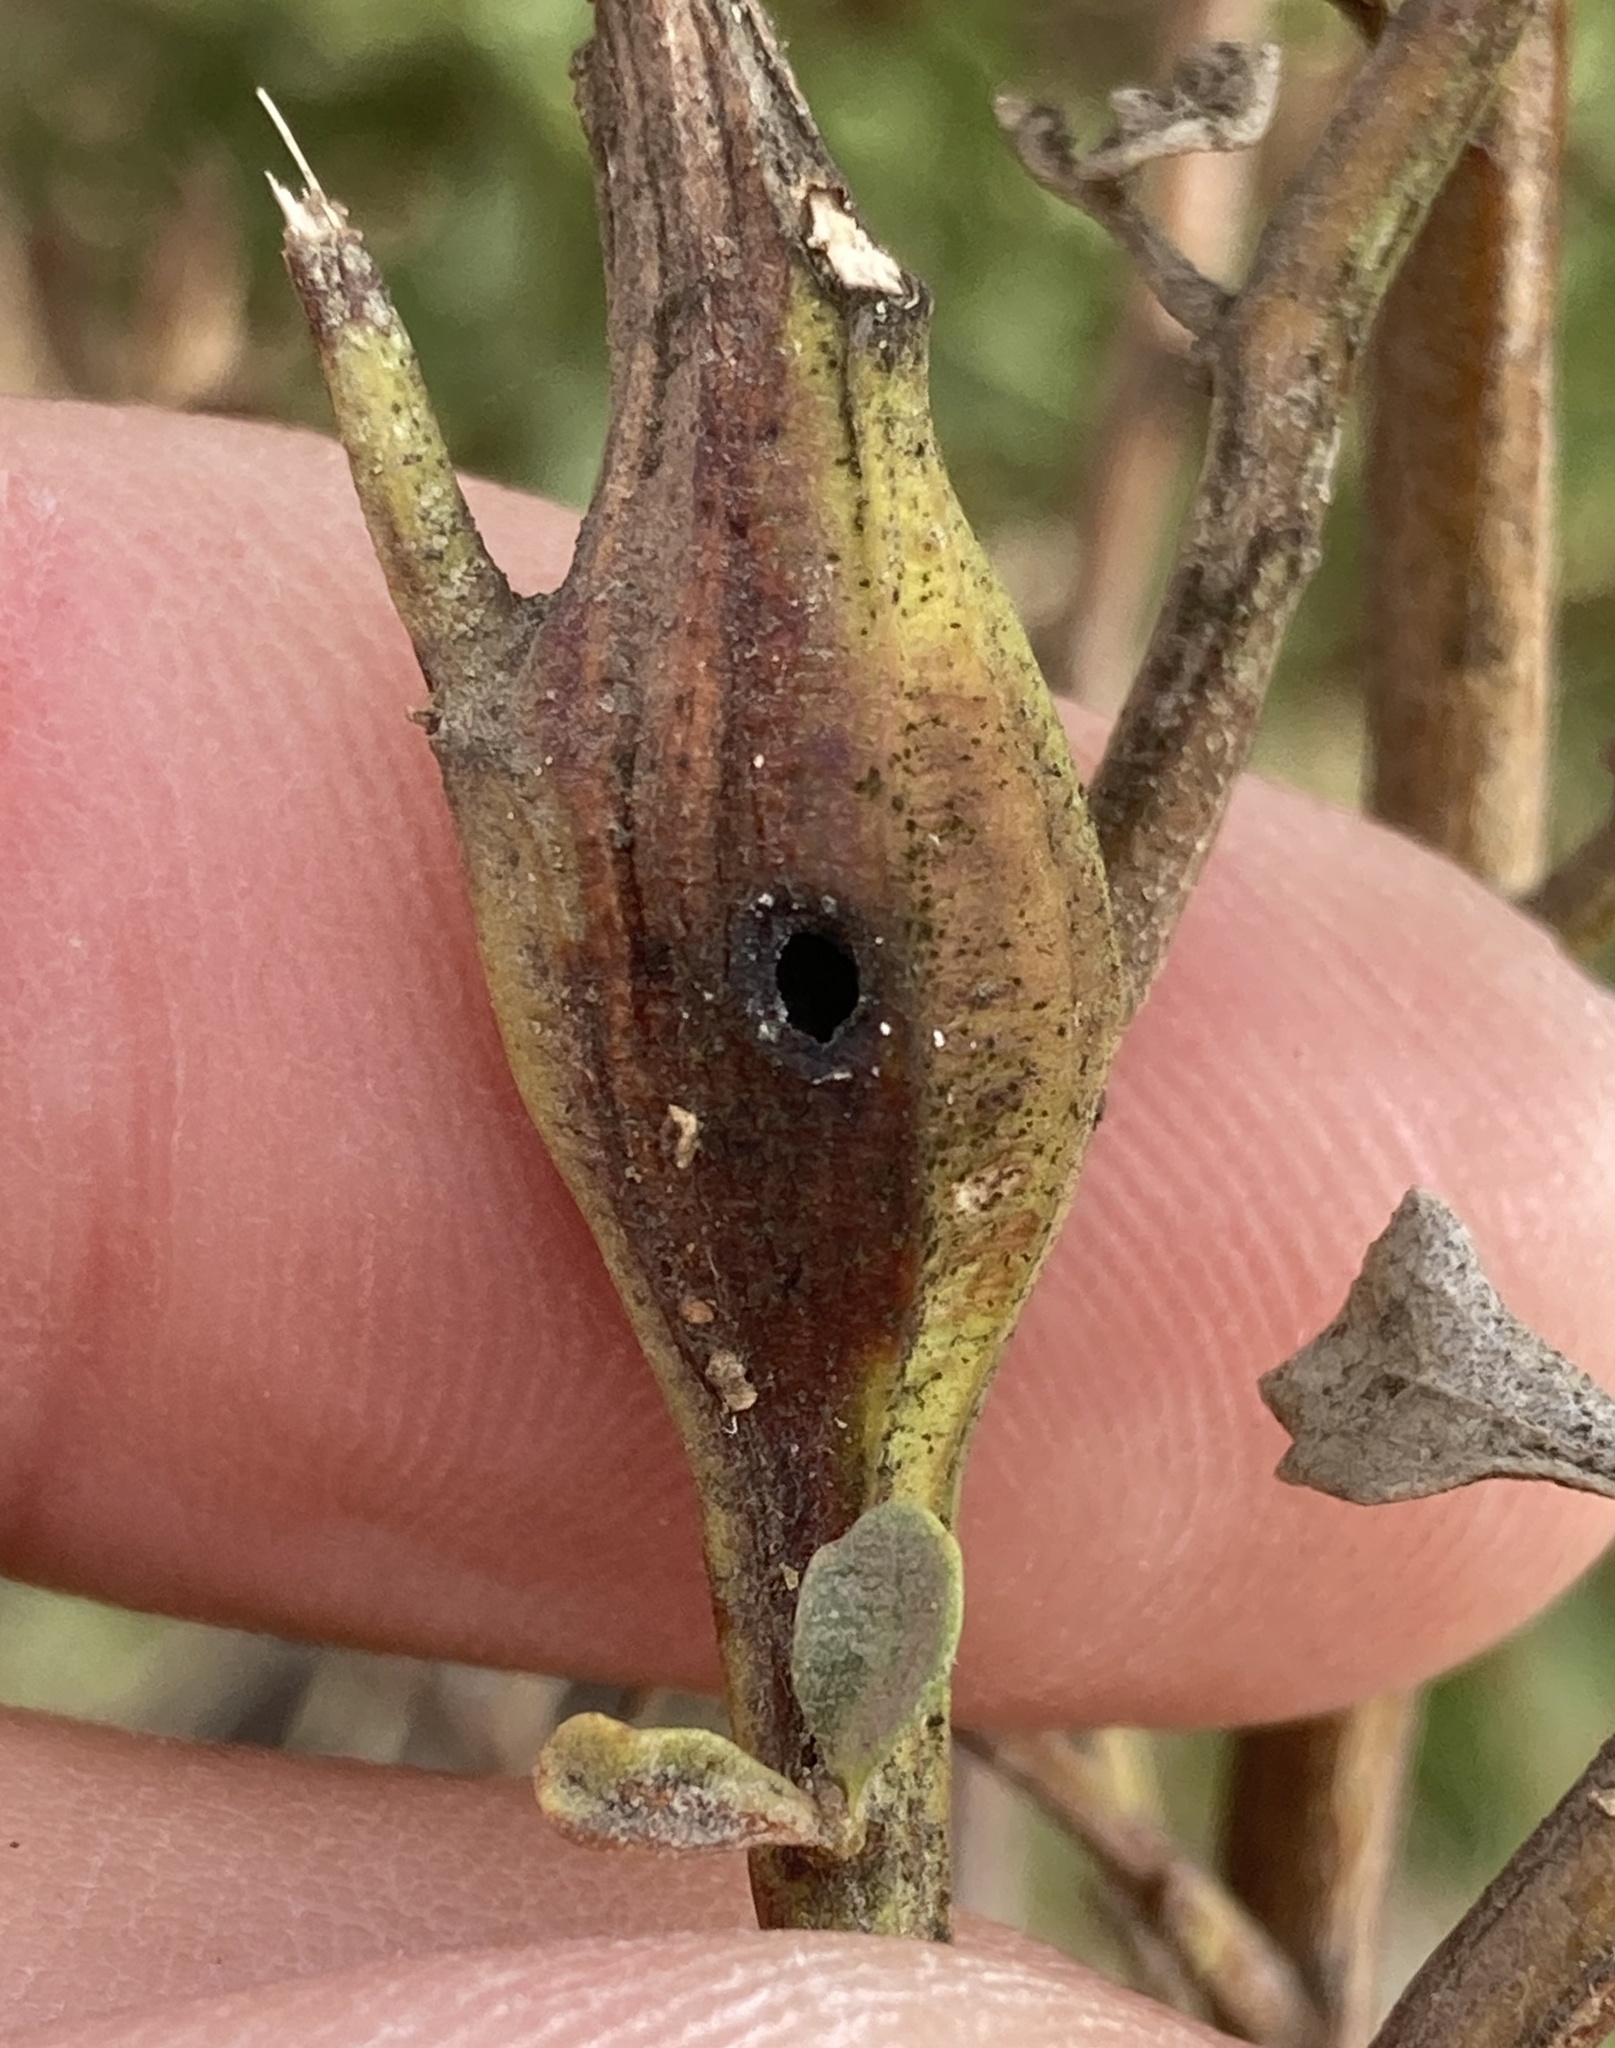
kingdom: Animalia
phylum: Arthropoda
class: Insecta
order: Lepidoptera
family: Gelechiidae
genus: Gnorimoschema
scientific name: Gnorimoschema baccharisella
